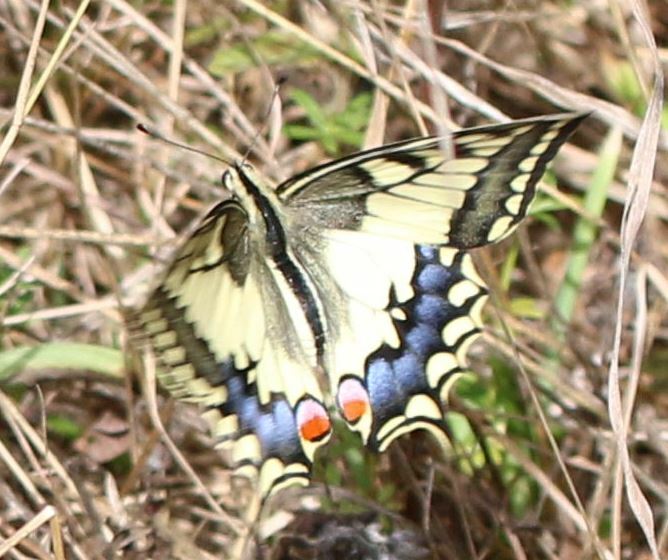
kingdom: Animalia
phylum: Arthropoda
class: Insecta
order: Lepidoptera
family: Papilionidae
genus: Papilio
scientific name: Papilio machaon
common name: Swallowtail
